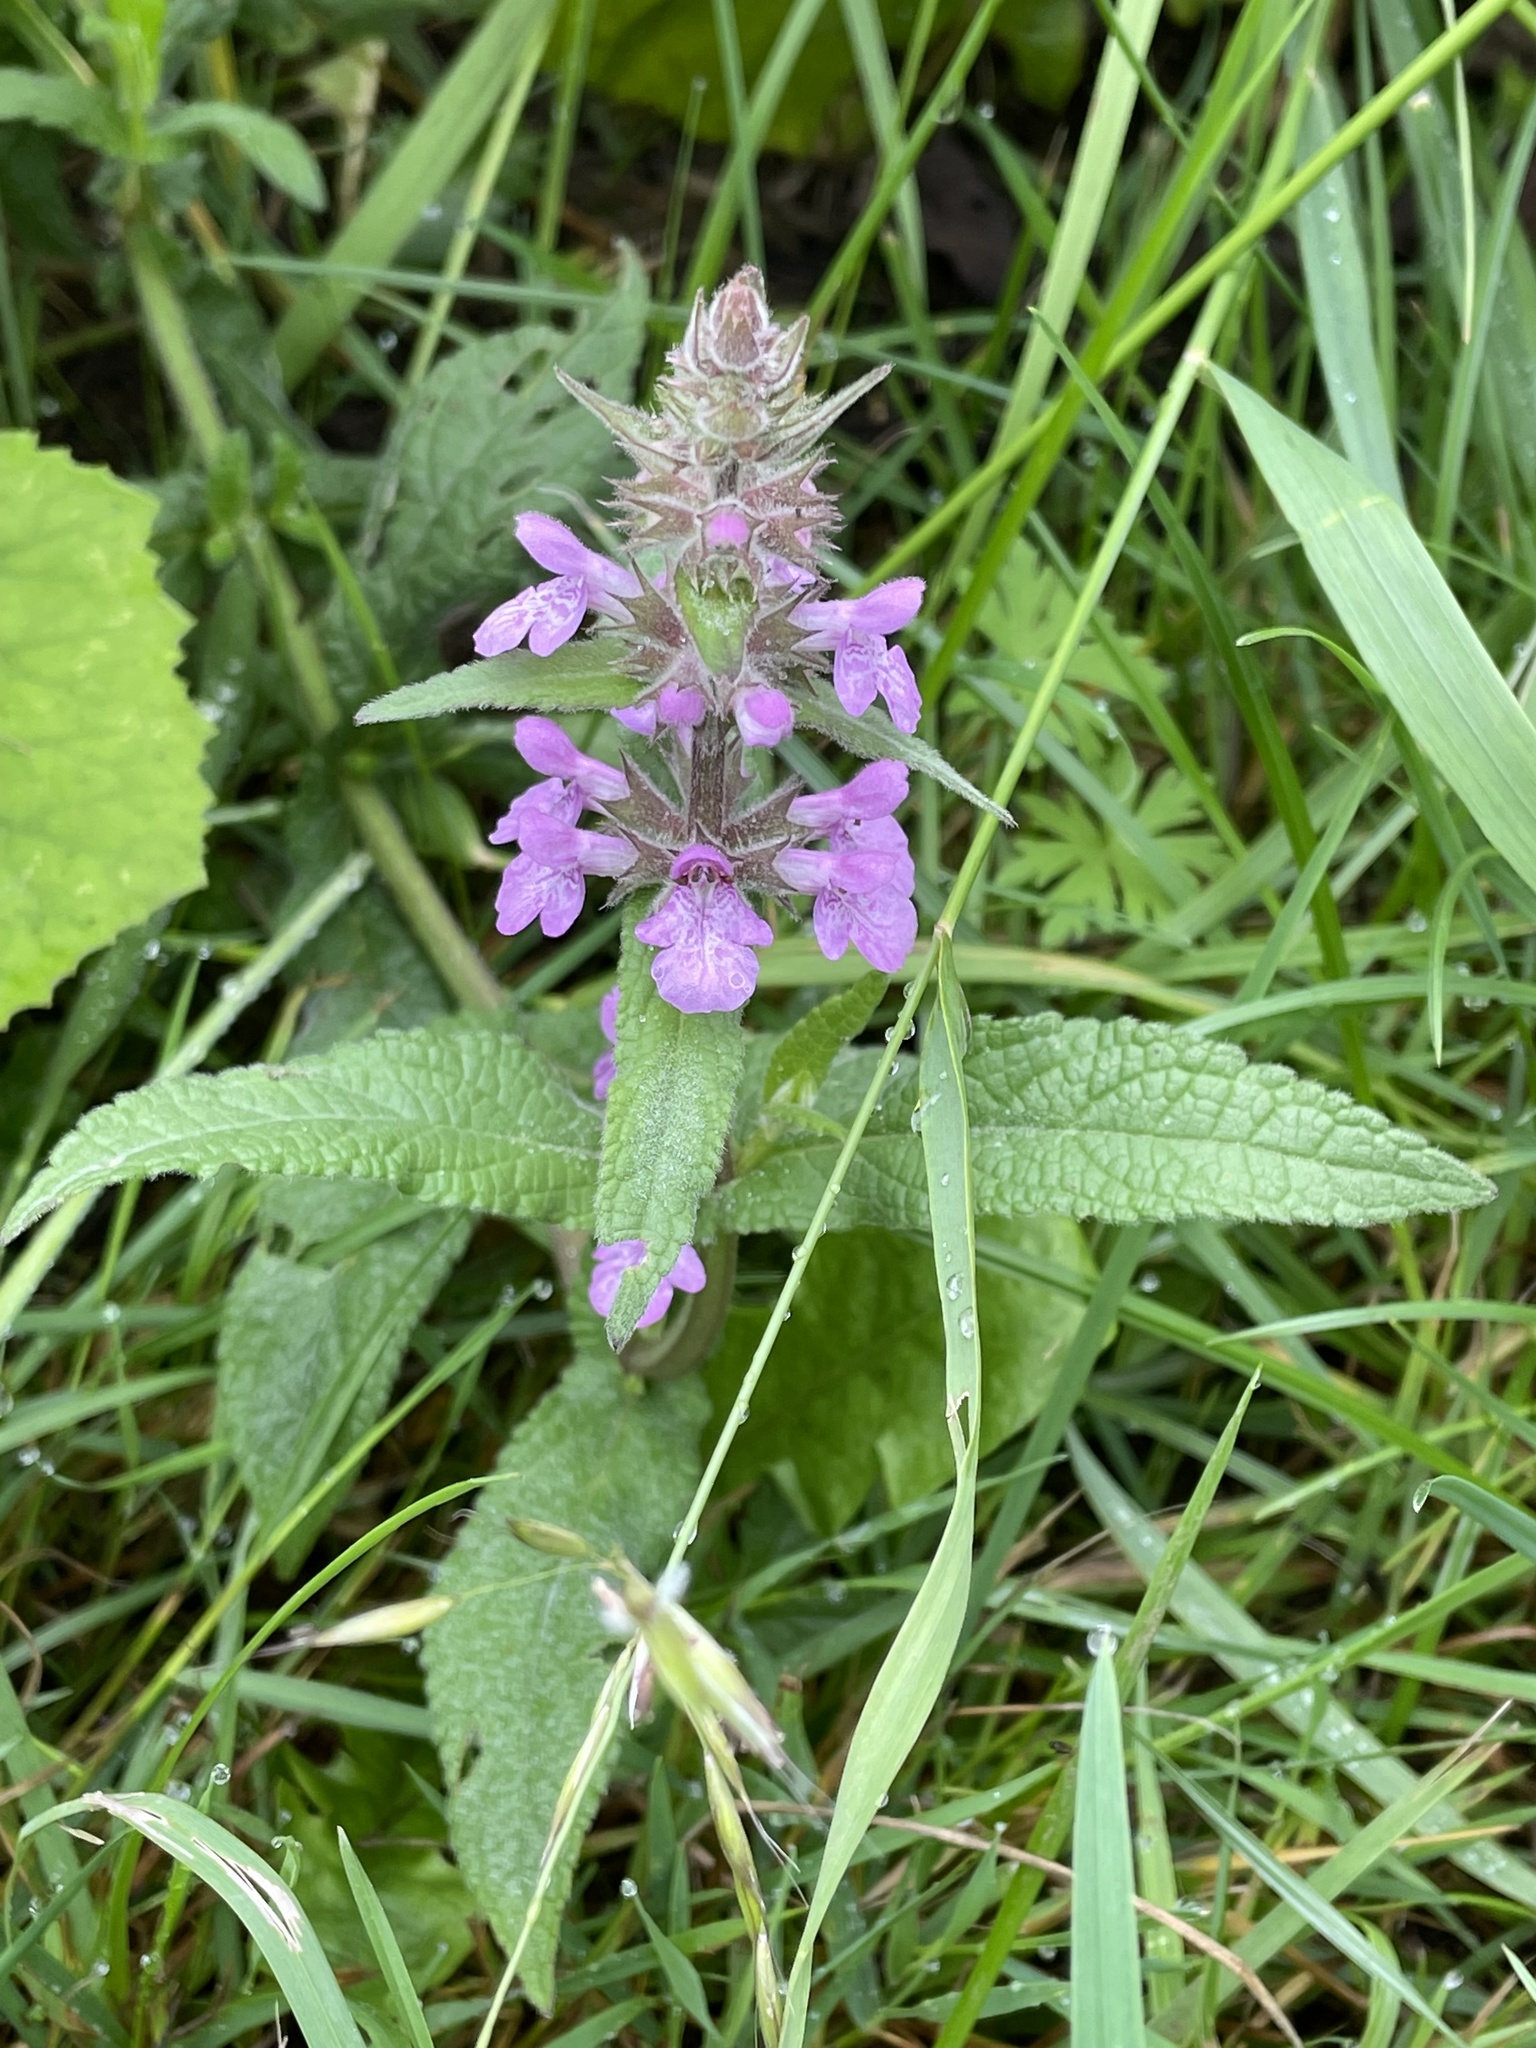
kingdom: Plantae
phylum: Tracheophyta
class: Magnoliopsida
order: Lamiales
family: Lamiaceae
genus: Stachys
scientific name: Stachys palustris
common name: Marsh woundwort
